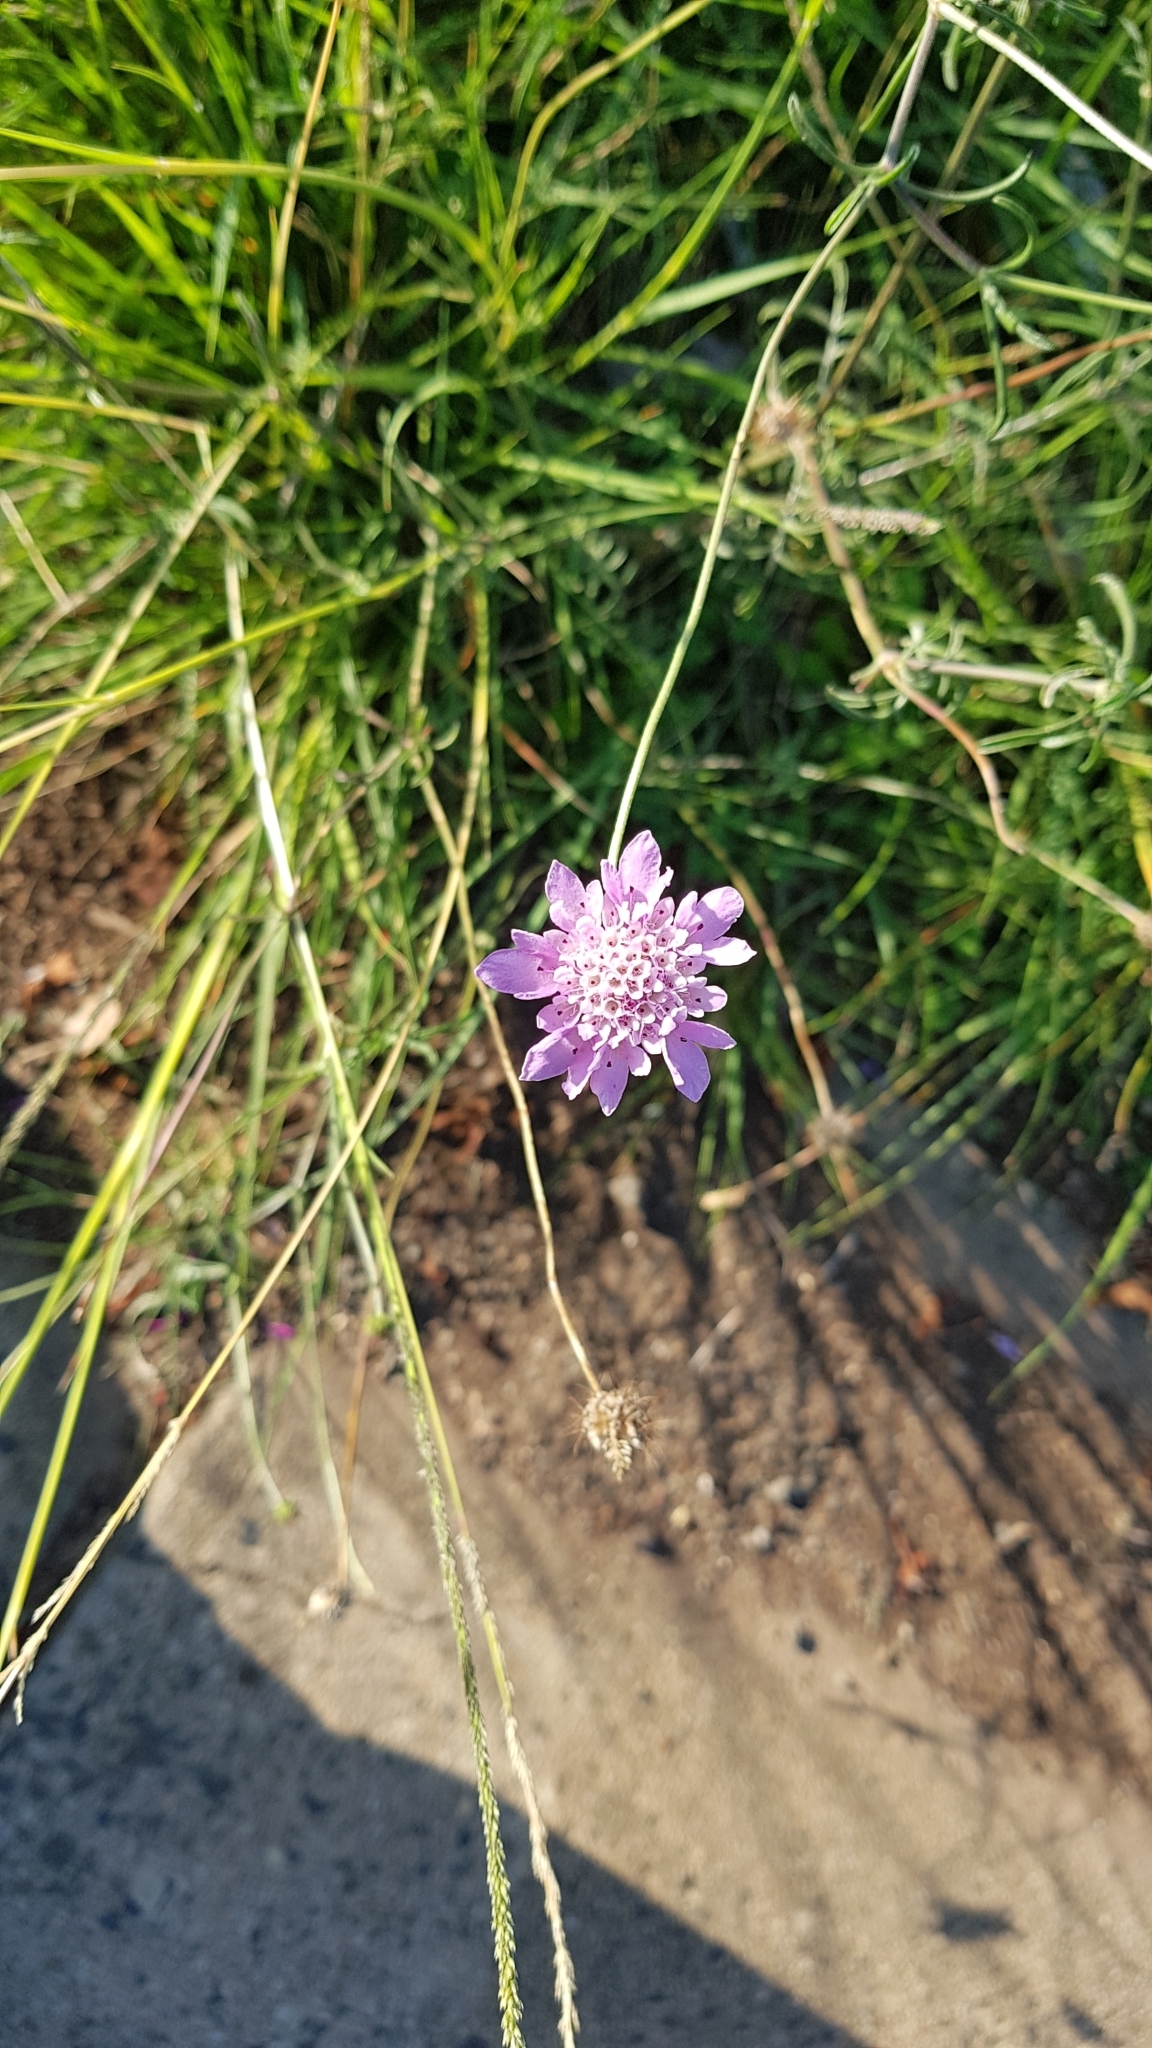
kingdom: Plantae
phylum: Tracheophyta
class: Magnoliopsida
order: Dipsacales
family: Caprifoliaceae
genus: Sixalix
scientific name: Sixalix atropurpurea
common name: Sweet scabious
